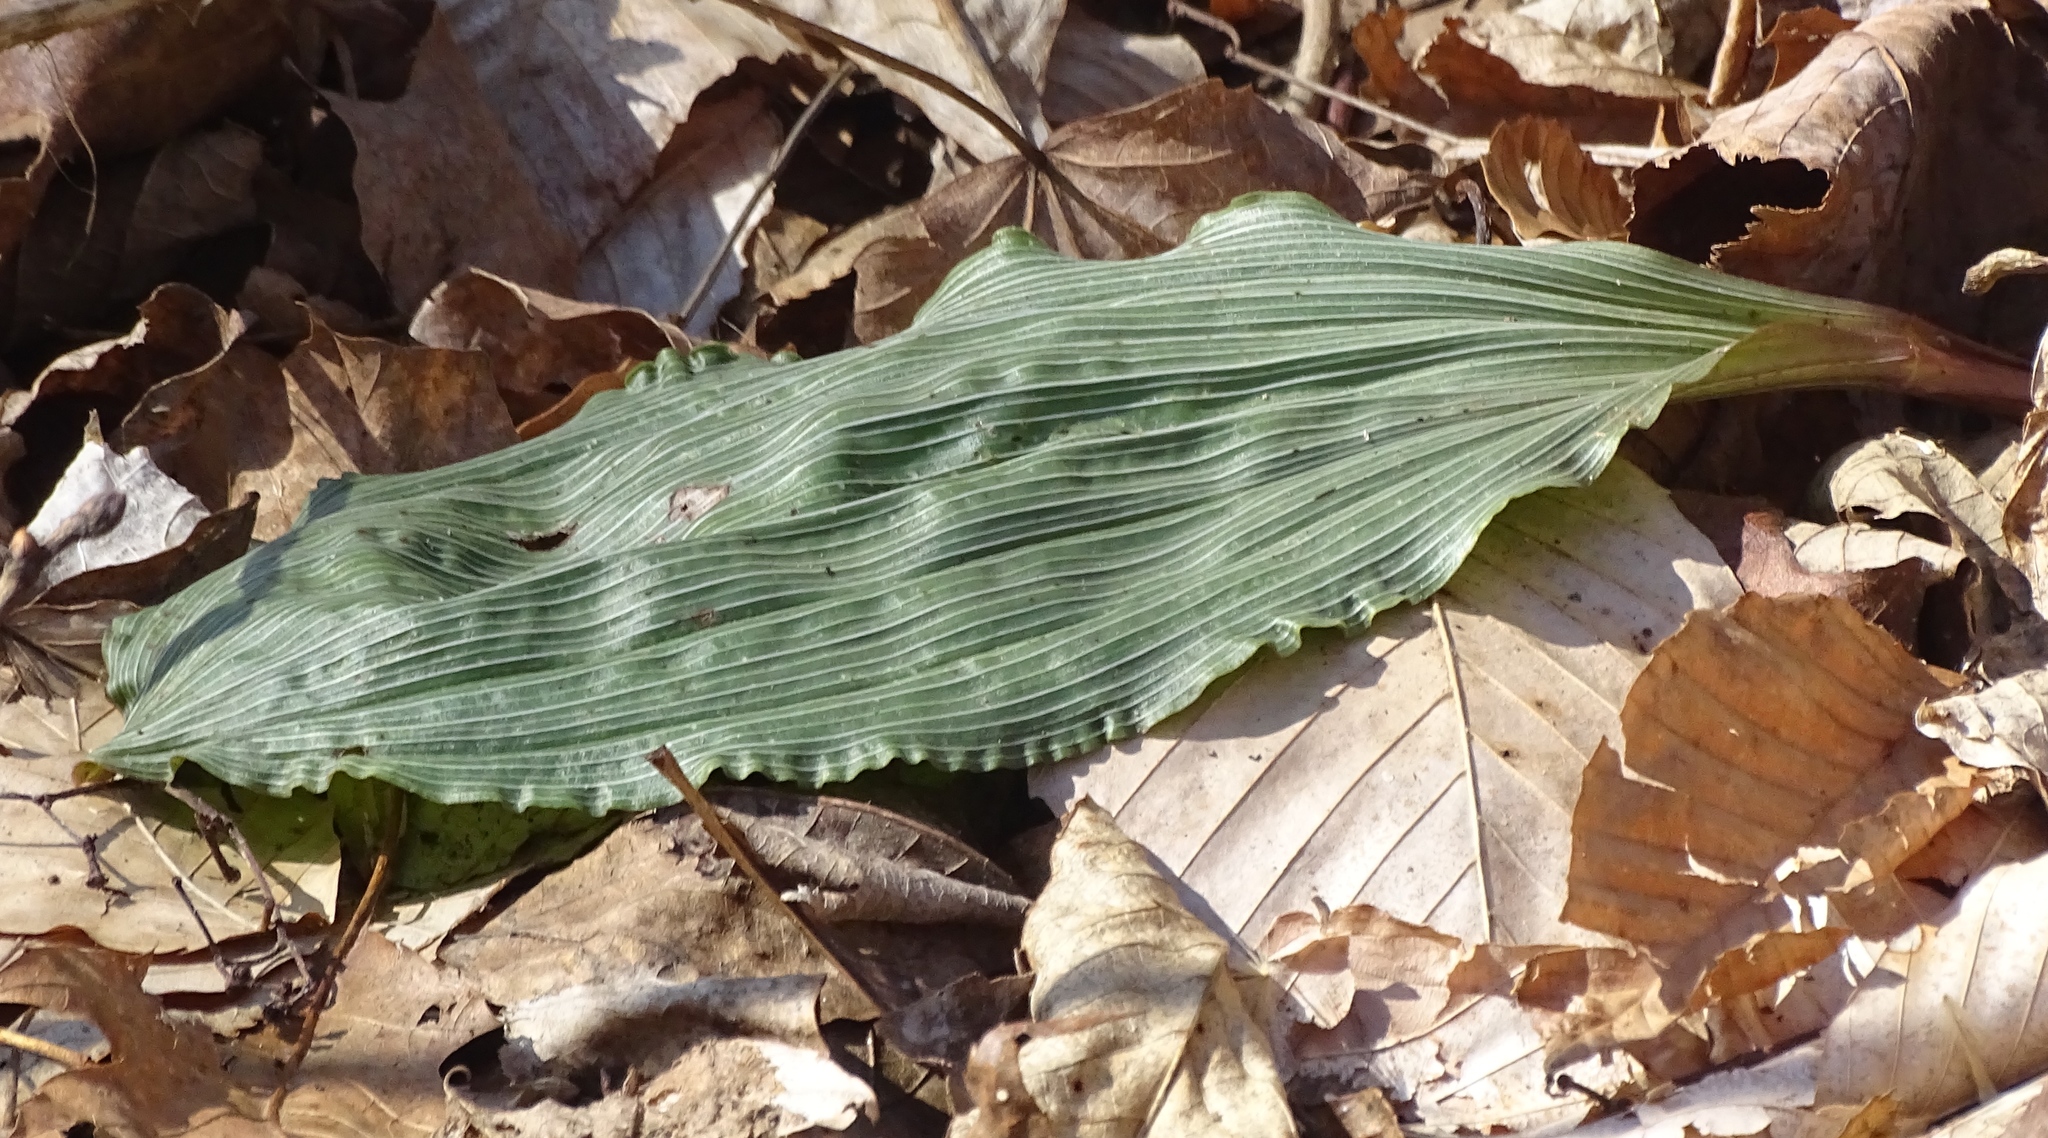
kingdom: Plantae
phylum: Tracheophyta
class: Liliopsida
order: Asparagales
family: Orchidaceae
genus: Aplectrum
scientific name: Aplectrum hyemale
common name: Adam-and-eve
